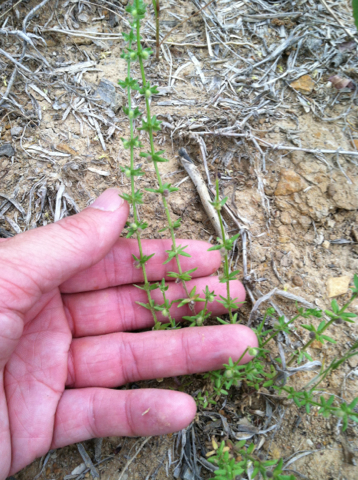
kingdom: Plantae
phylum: Tracheophyta
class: Magnoliopsida
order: Gentianales
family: Rubiaceae
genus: Galium
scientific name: Galium virgatum
